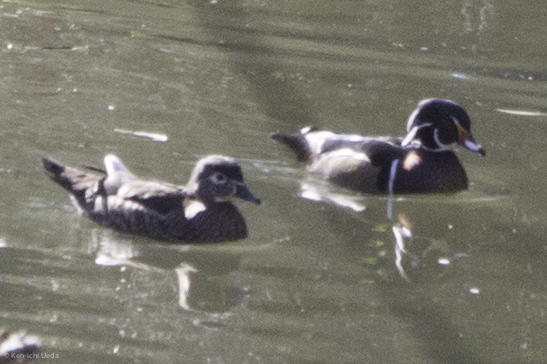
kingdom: Animalia
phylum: Chordata
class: Aves
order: Anseriformes
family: Anatidae
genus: Aix
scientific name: Aix sponsa
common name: Wood duck
